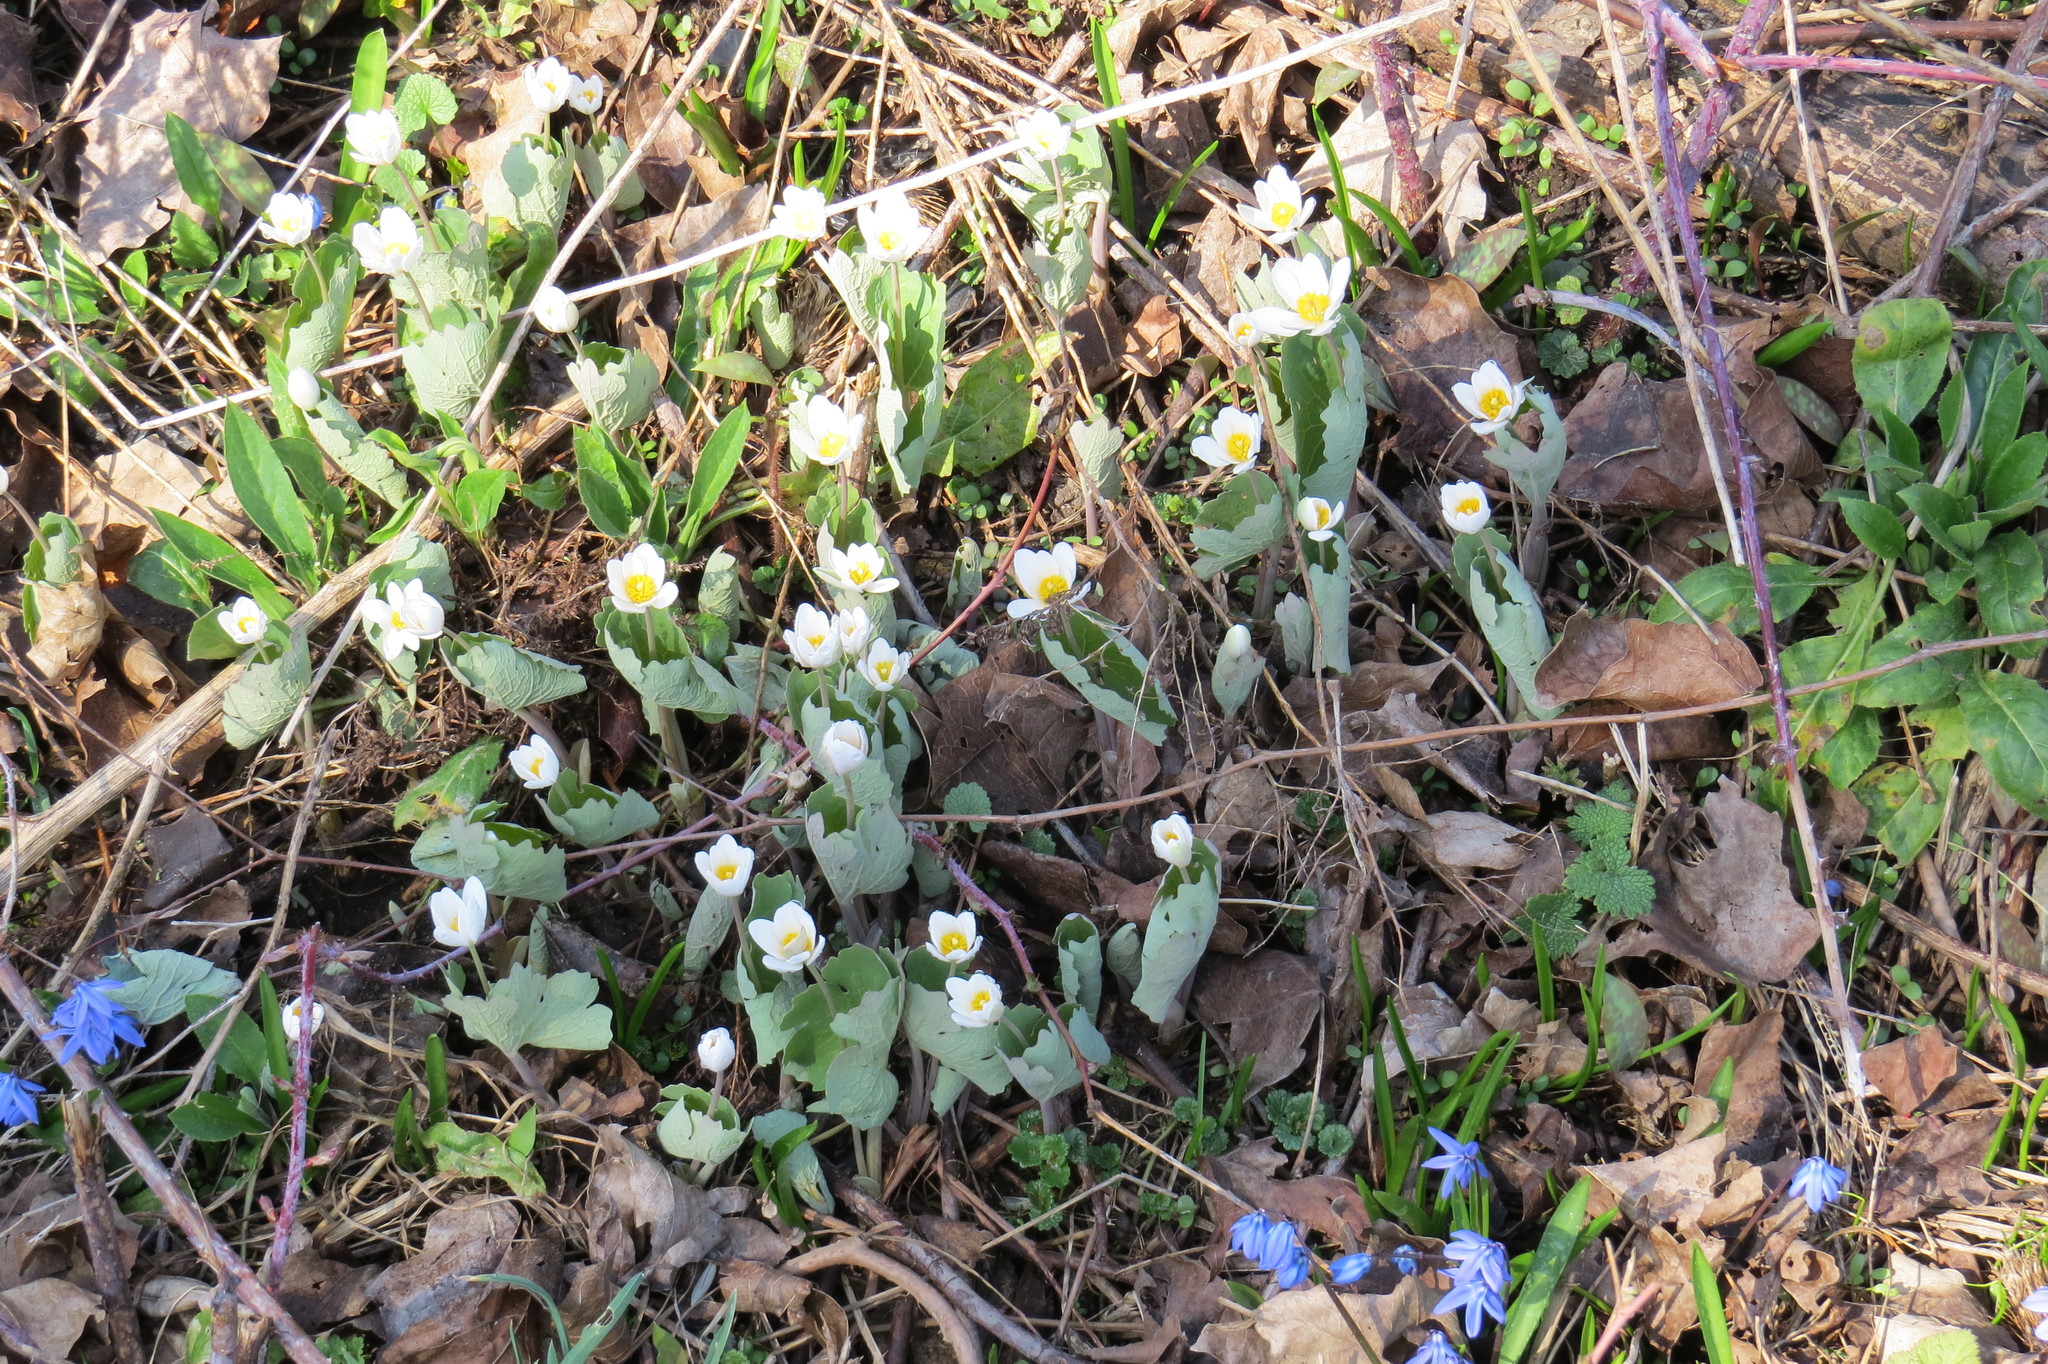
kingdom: Plantae
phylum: Tracheophyta
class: Magnoliopsida
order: Ranunculales
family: Papaveraceae
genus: Sanguinaria
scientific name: Sanguinaria canadensis
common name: Bloodroot
